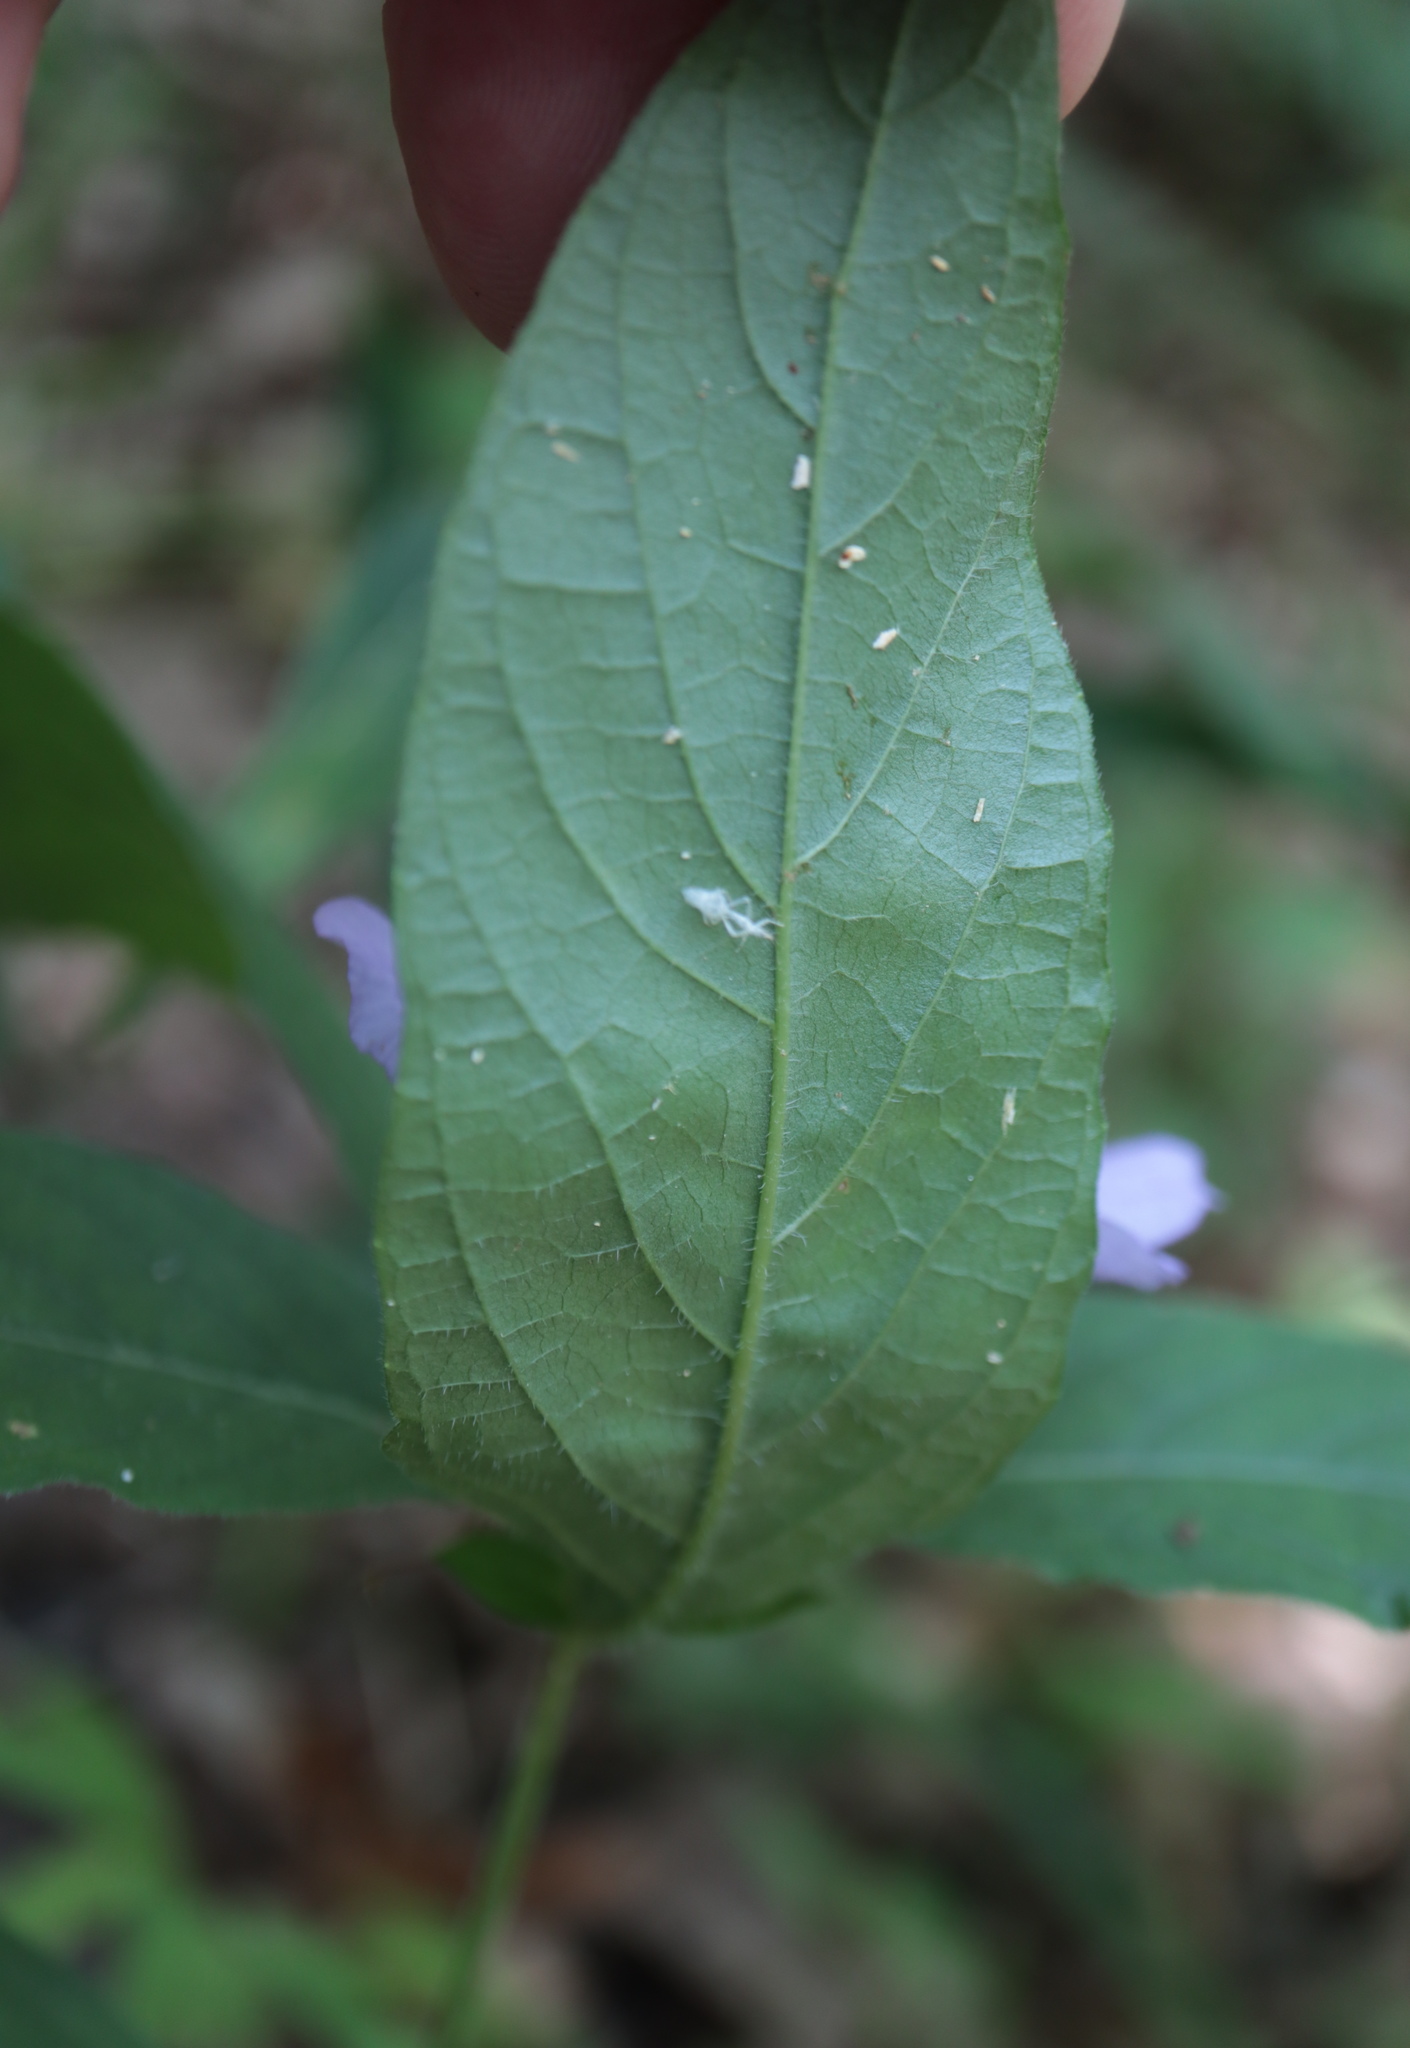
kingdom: Plantae
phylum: Tracheophyta
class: Magnoliopsida
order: Lamiales
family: Acanthaceae
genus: Ruellia
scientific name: Ruellia caroliniensis
